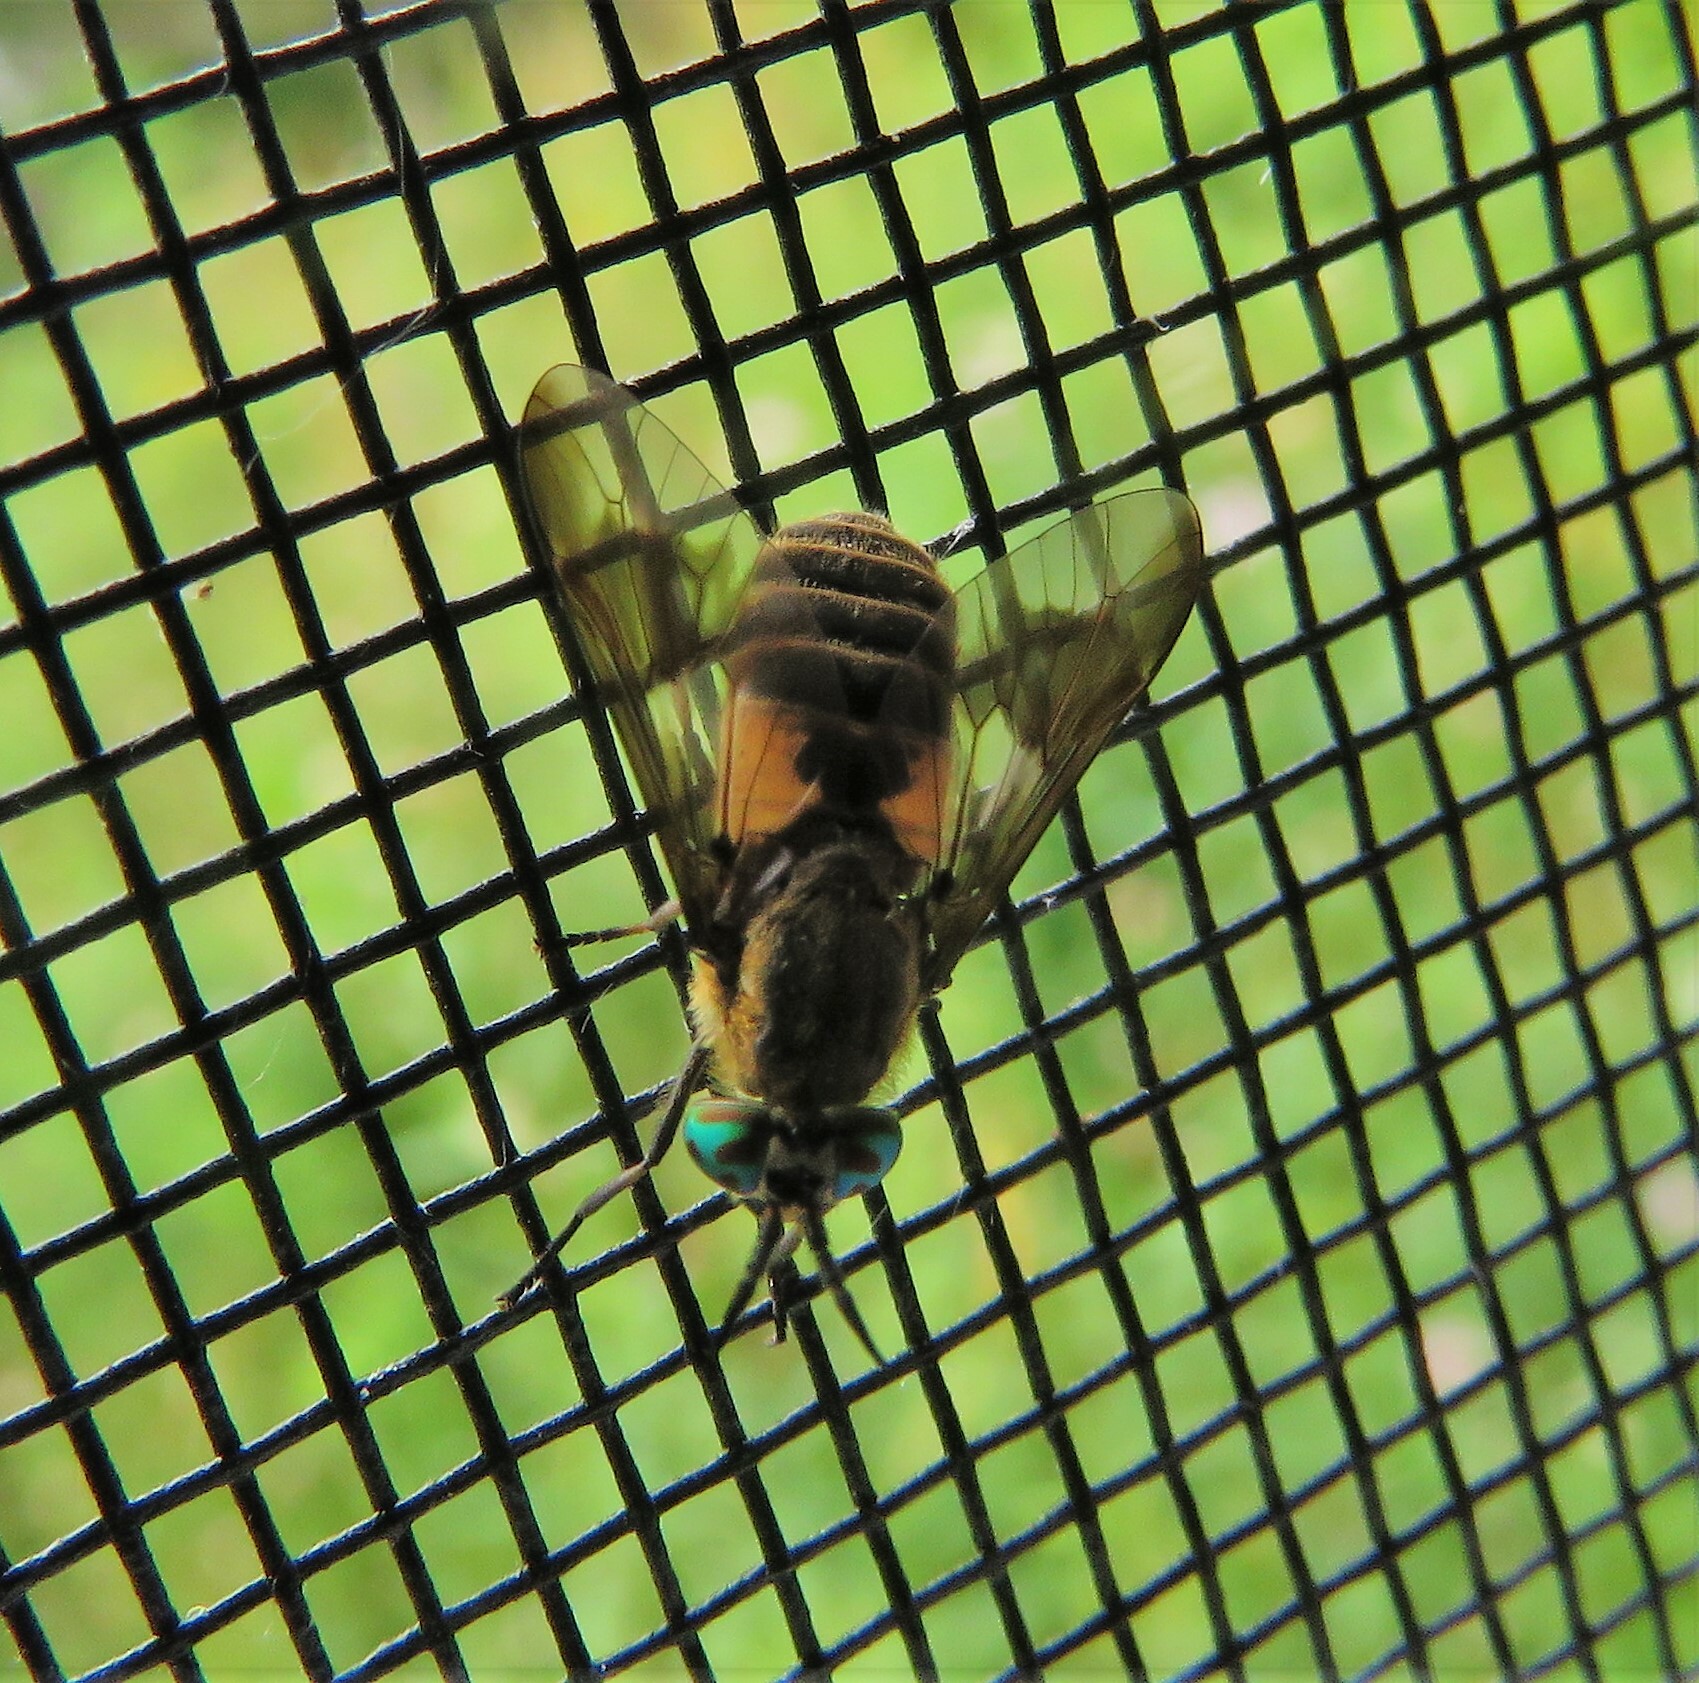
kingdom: Animalia
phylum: Arthropoda
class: Insecta
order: Diptera
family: Tabanidae
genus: Chrysops
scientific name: Chrysops frigidus
